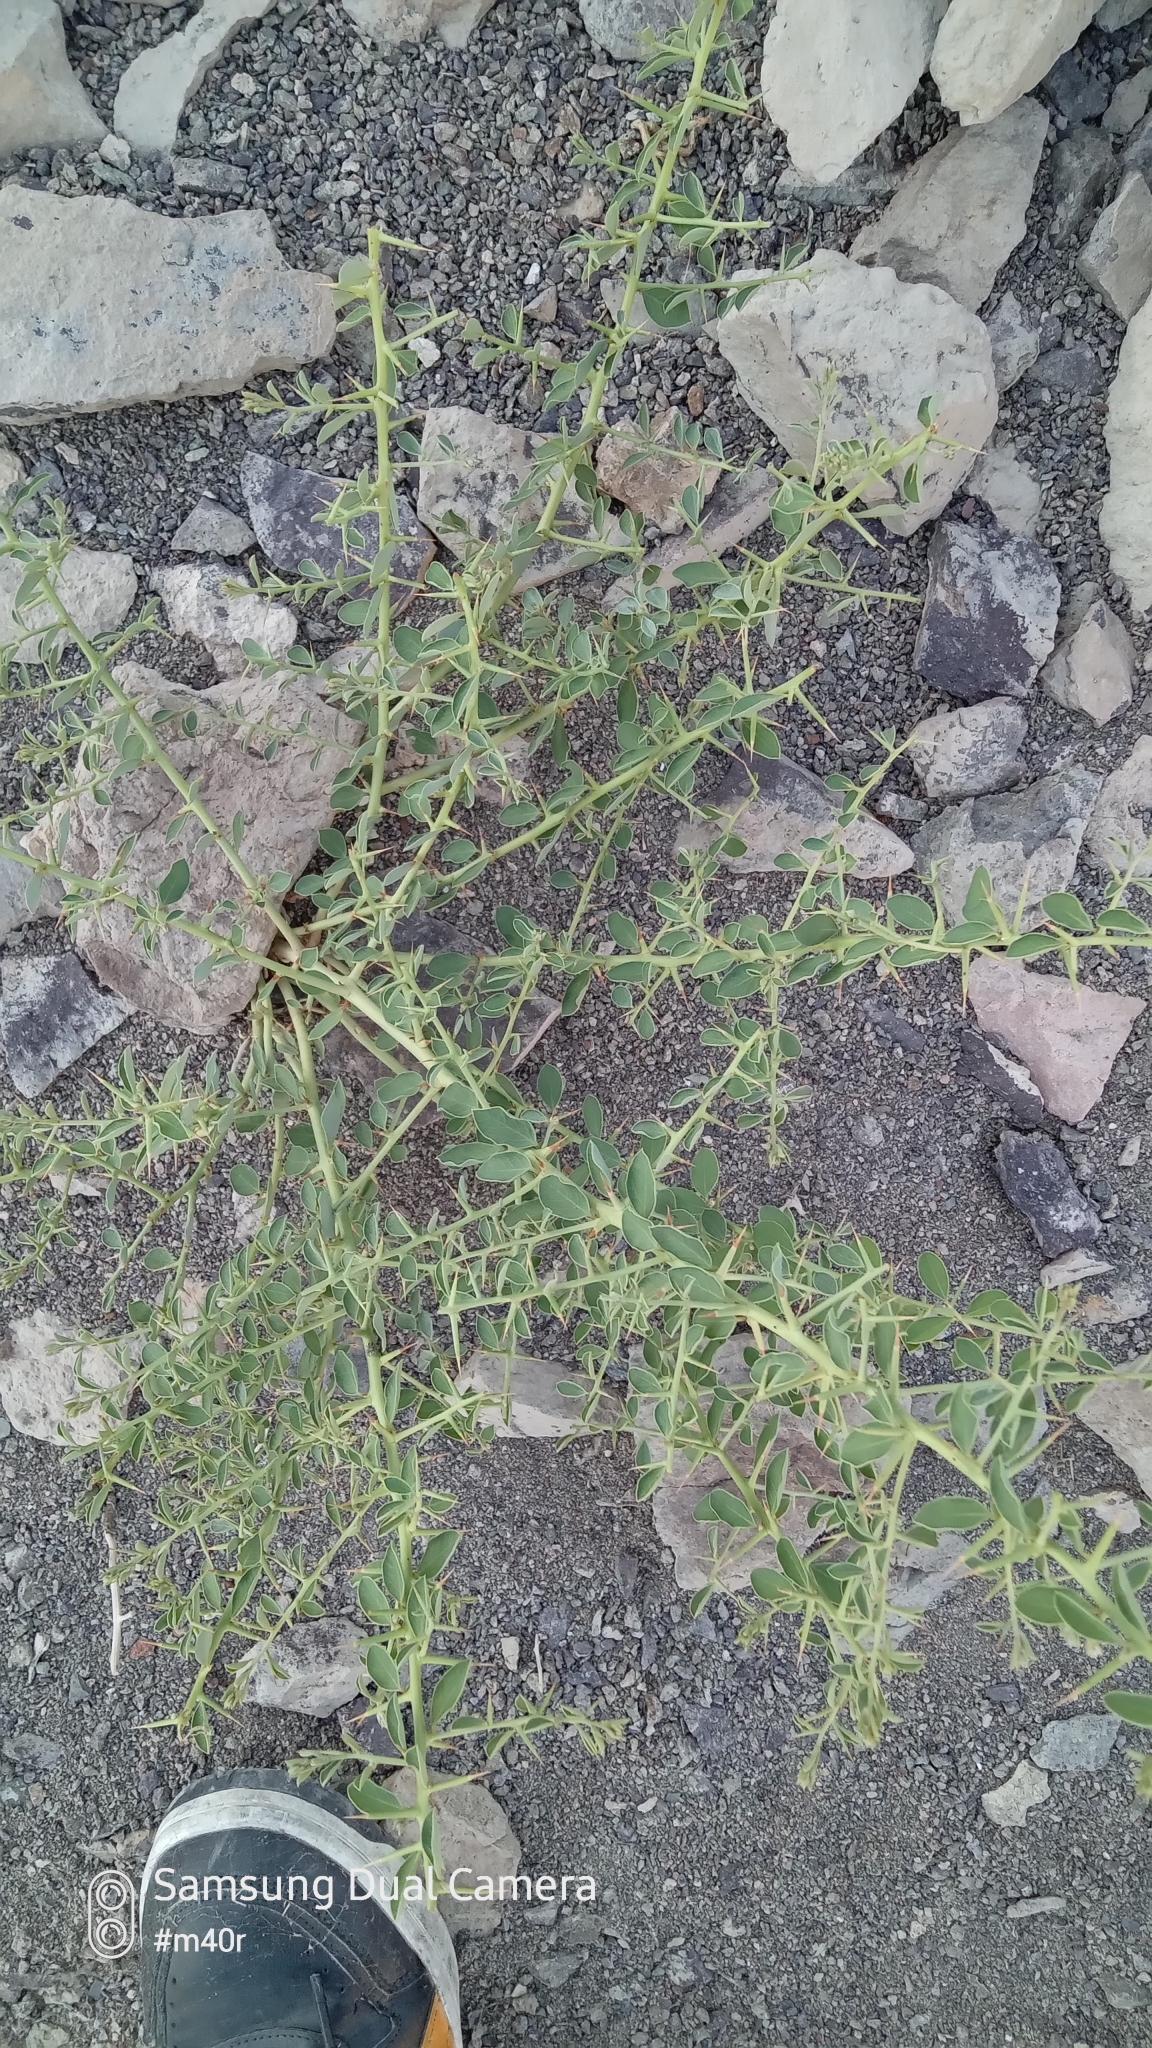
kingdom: Plantae
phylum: Tracheophyta
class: Magnoliopsida
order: Fabales
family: Fabaceae
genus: Alhagi
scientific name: Alhagi pseudalhagi
